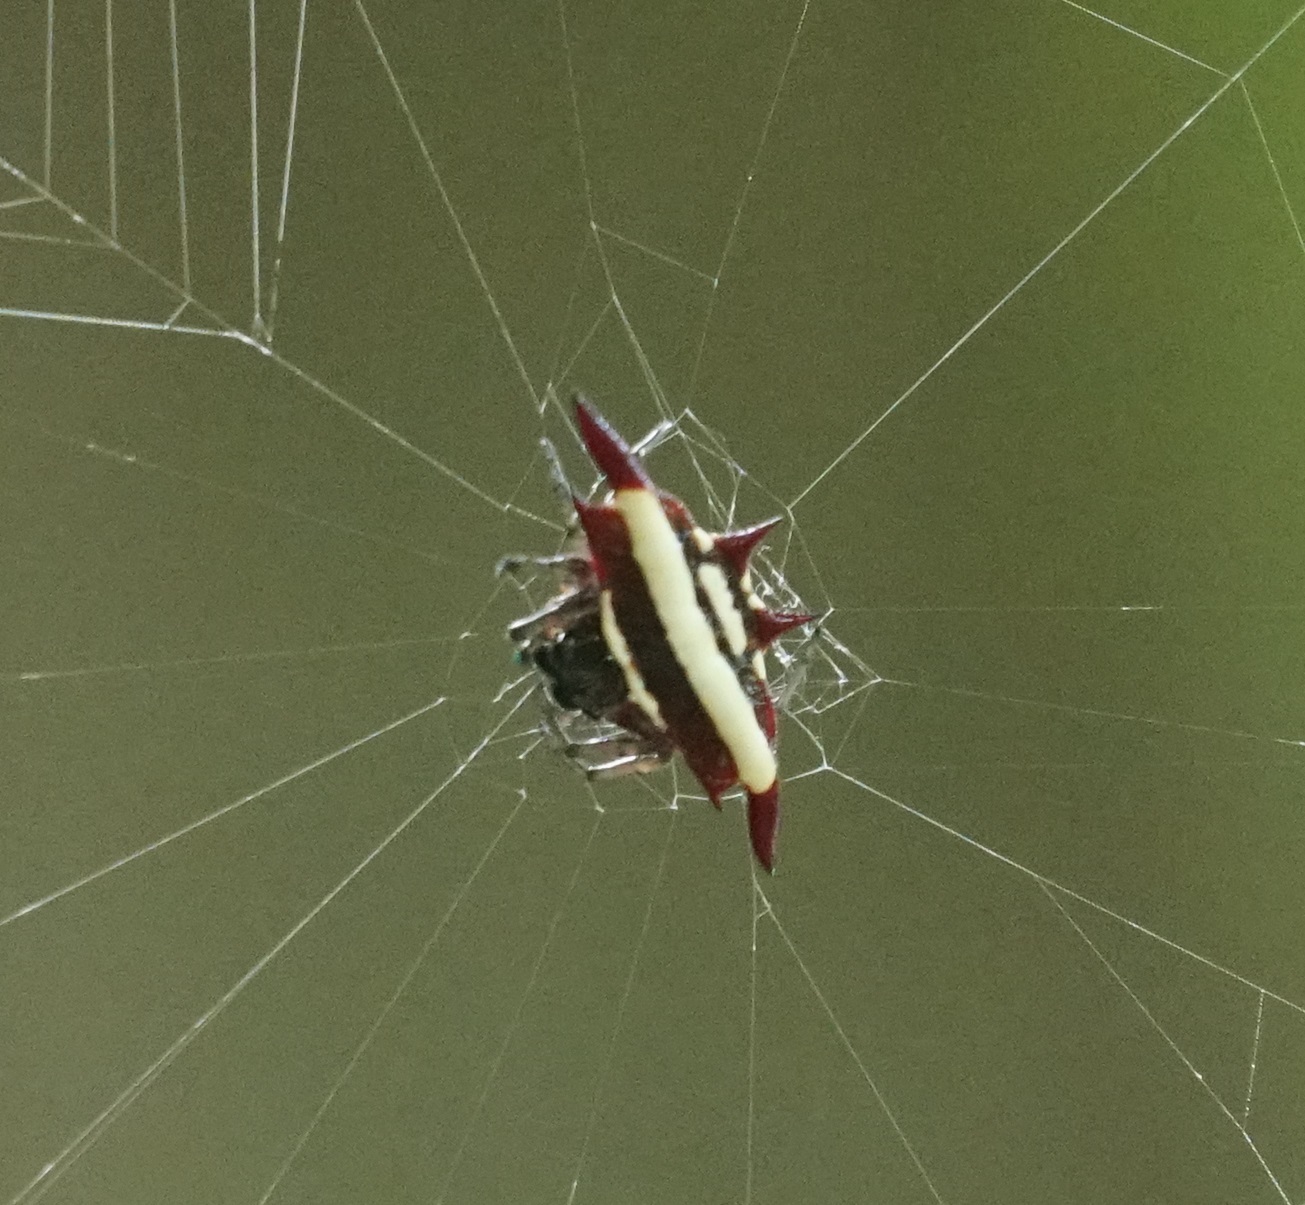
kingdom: Animalia
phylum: Arthropoda
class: Arachnida
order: Araneae
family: Araneidae
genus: Gasteracantha
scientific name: Gasteracantha fornicata
